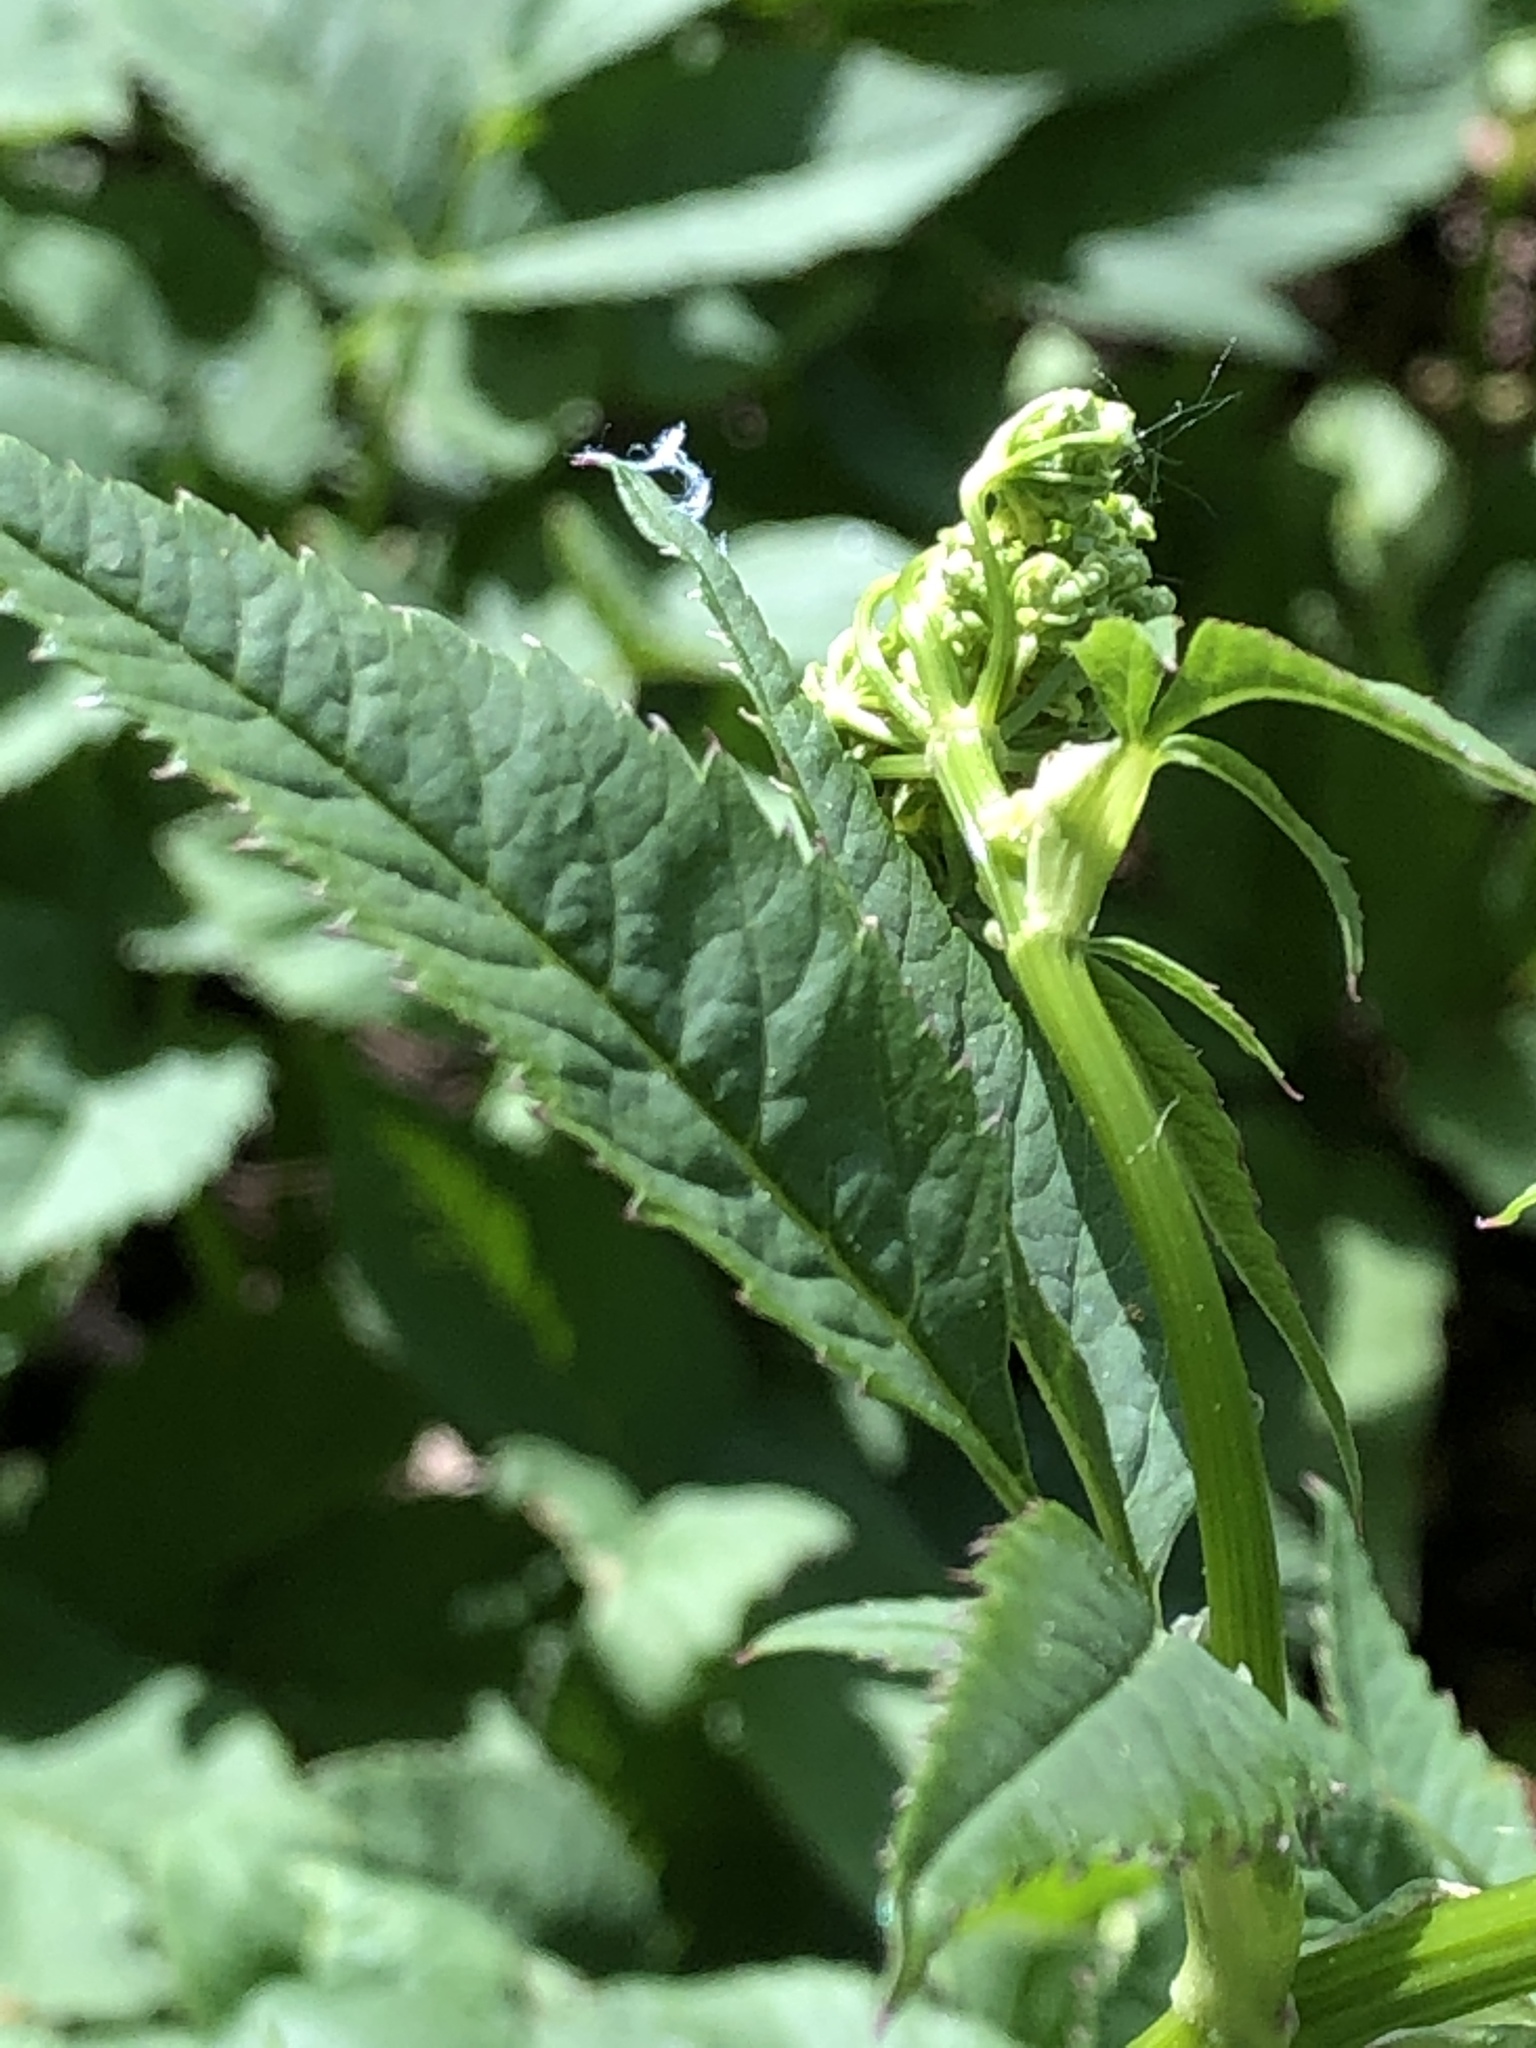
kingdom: Plantae
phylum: Tracheophyta
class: Magnoliopsida
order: Apiales
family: Apiaceae
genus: Aegopodium
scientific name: Aegopodium podagraria
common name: Ground-elder
